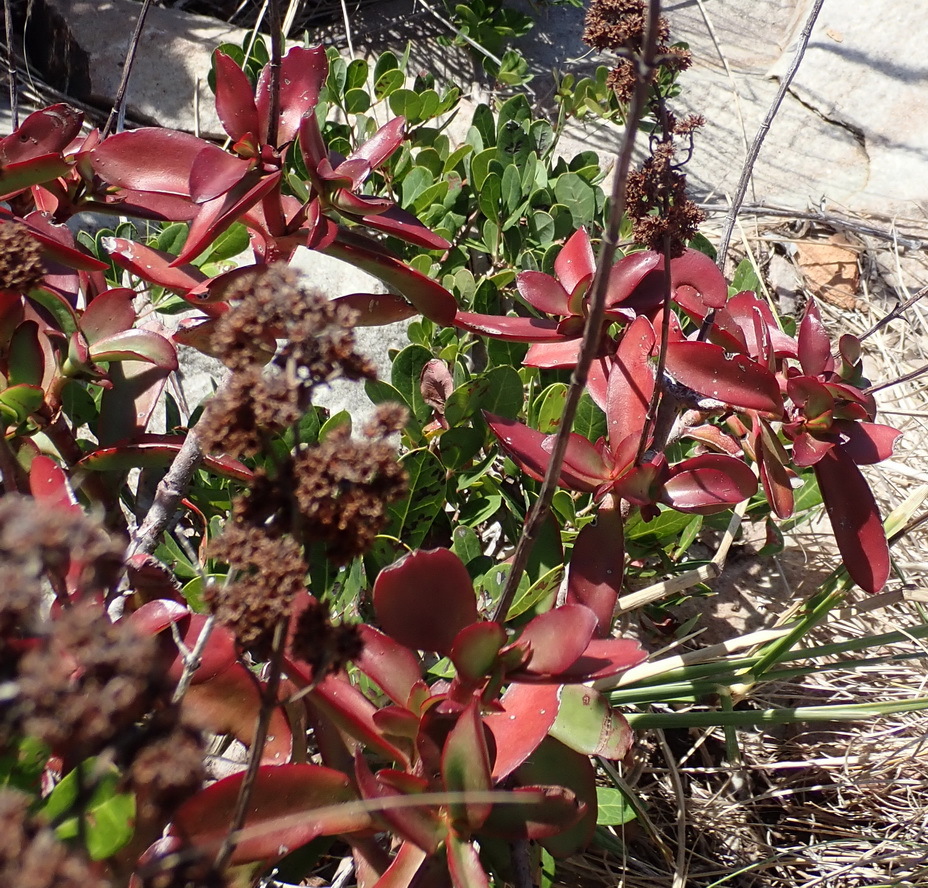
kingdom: Plantae
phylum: Tracheophyta
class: Magnoliopsida
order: Saxifragales
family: Crassulaceae
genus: Crassula
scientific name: Crassula cultrata
